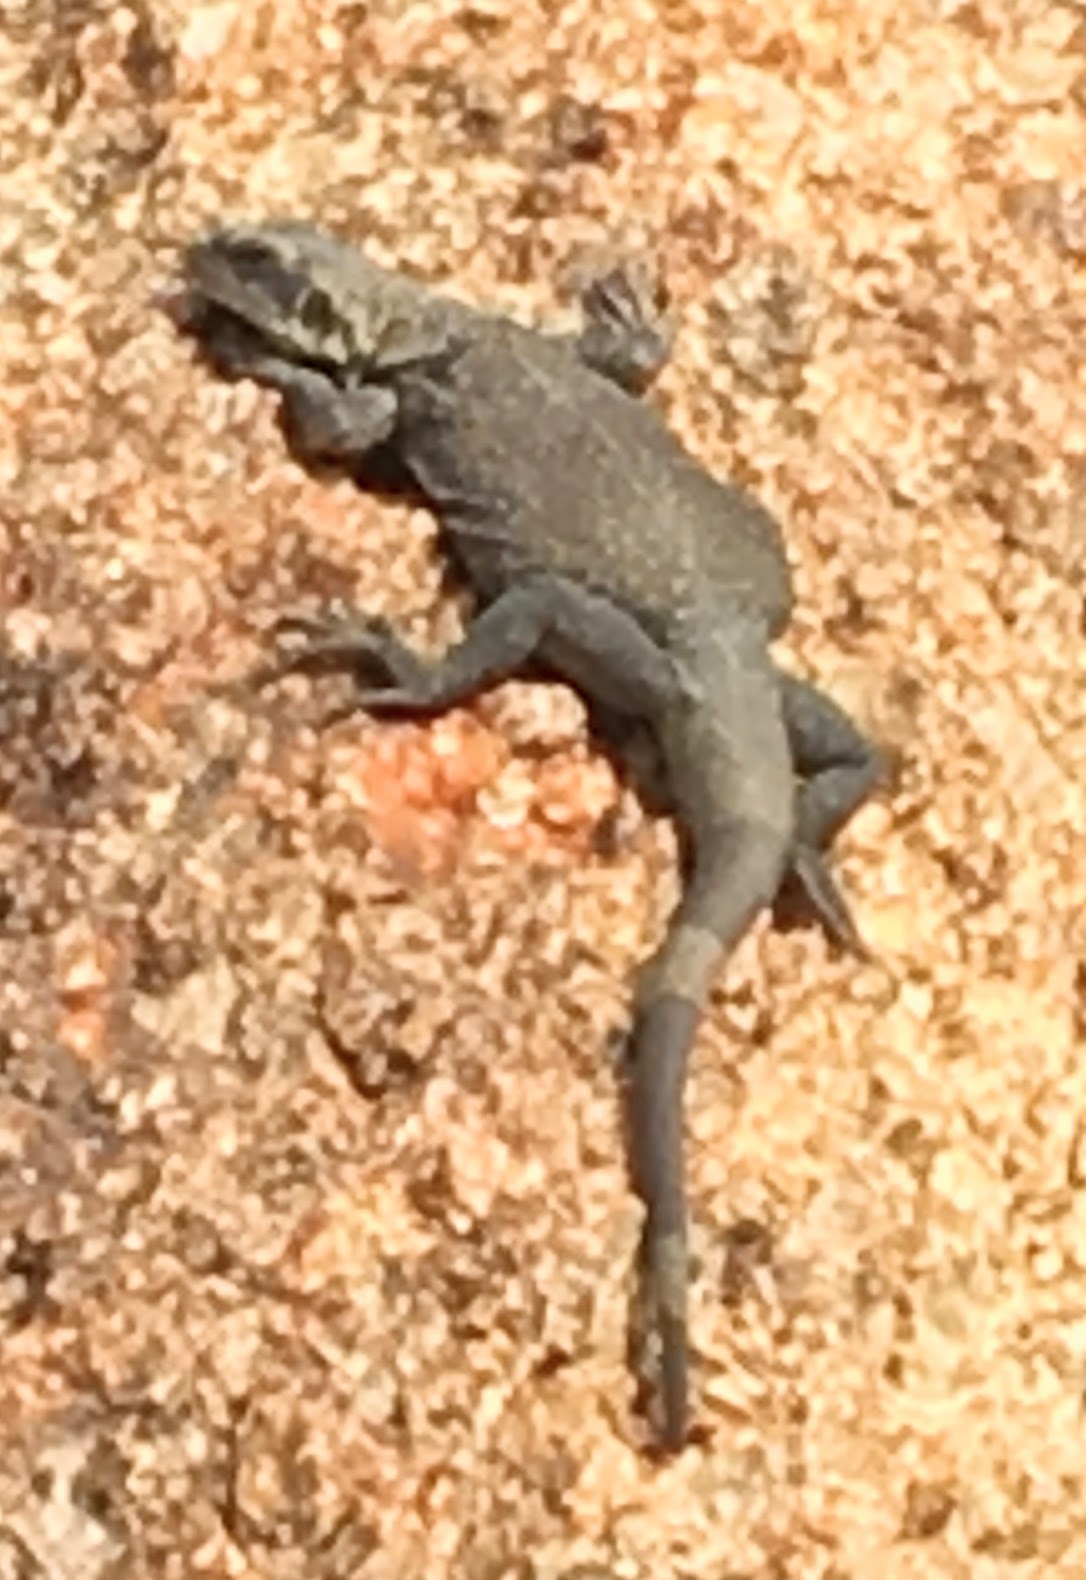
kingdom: Animalia
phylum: Chordata
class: Squamata
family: Iguanidae
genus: Sauromalus
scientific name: Sauromalus ater
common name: Northern chuckwalla
